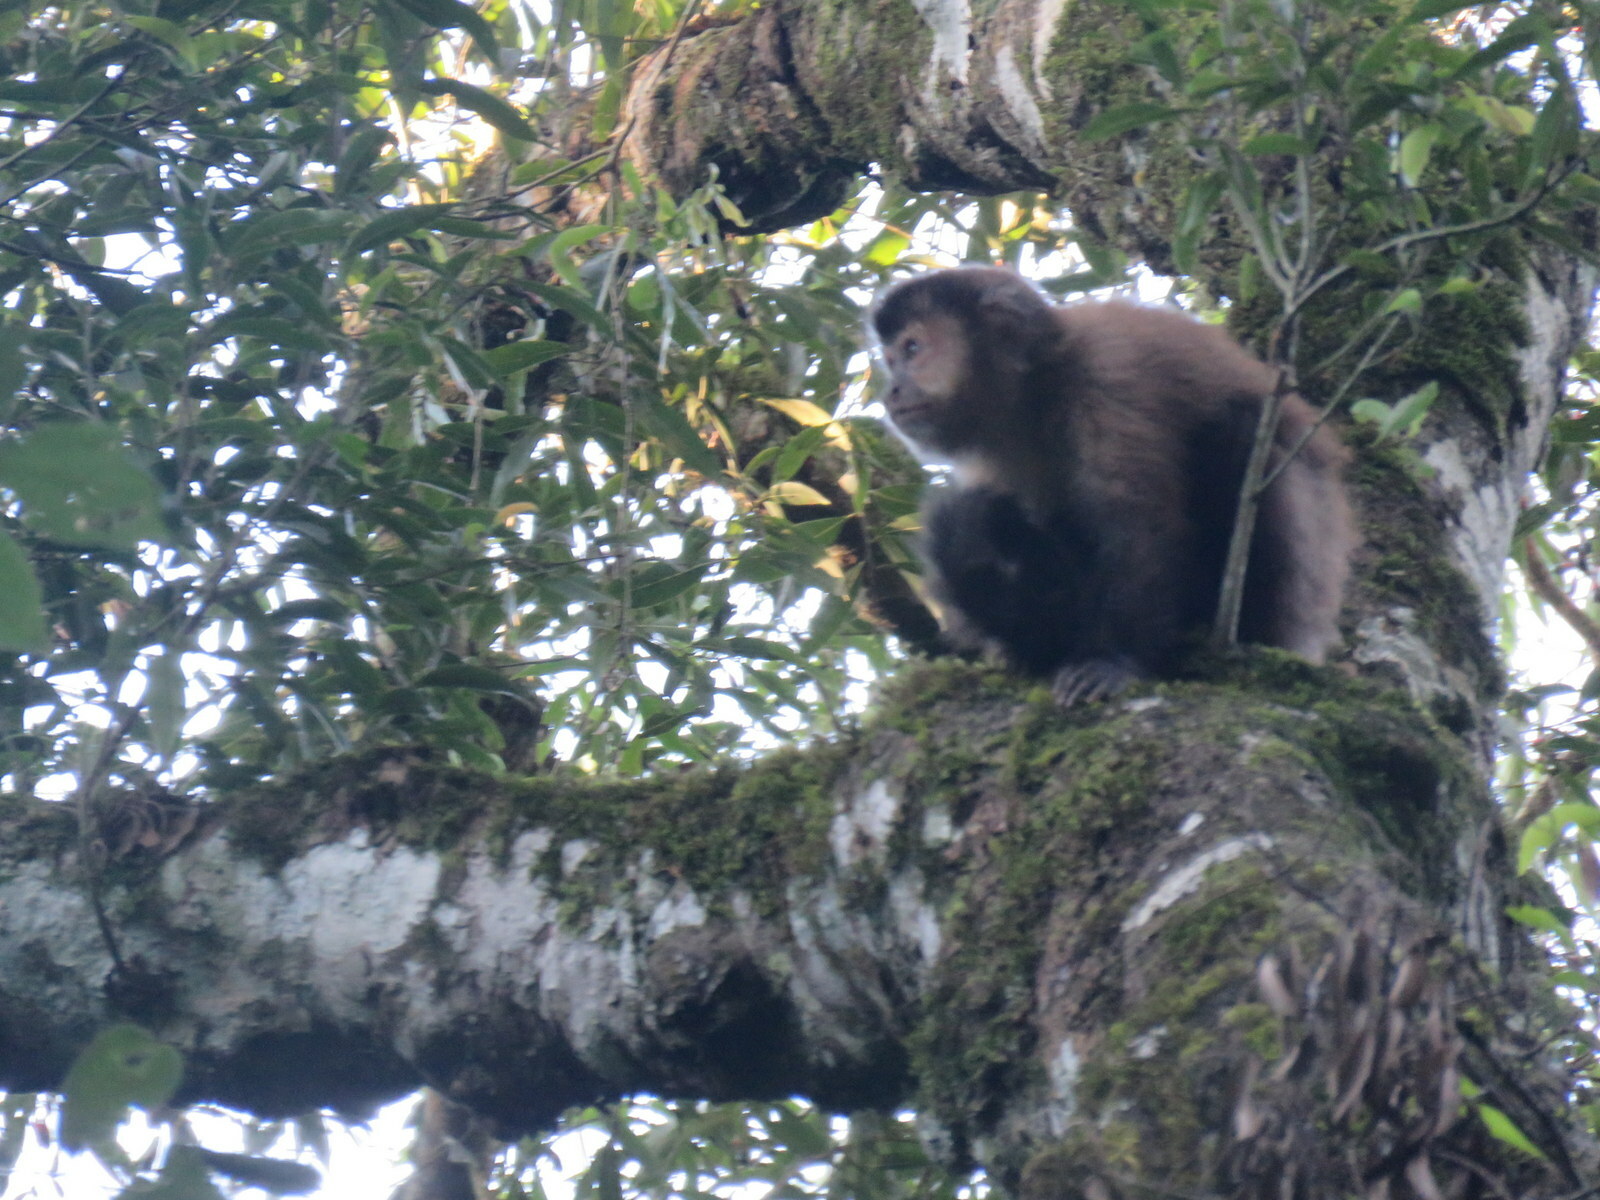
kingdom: Animalia
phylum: Chordata
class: Mammalia
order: Primates
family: Cebidae
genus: Sapajus
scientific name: Sapajus nigritus
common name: Black capuchin
